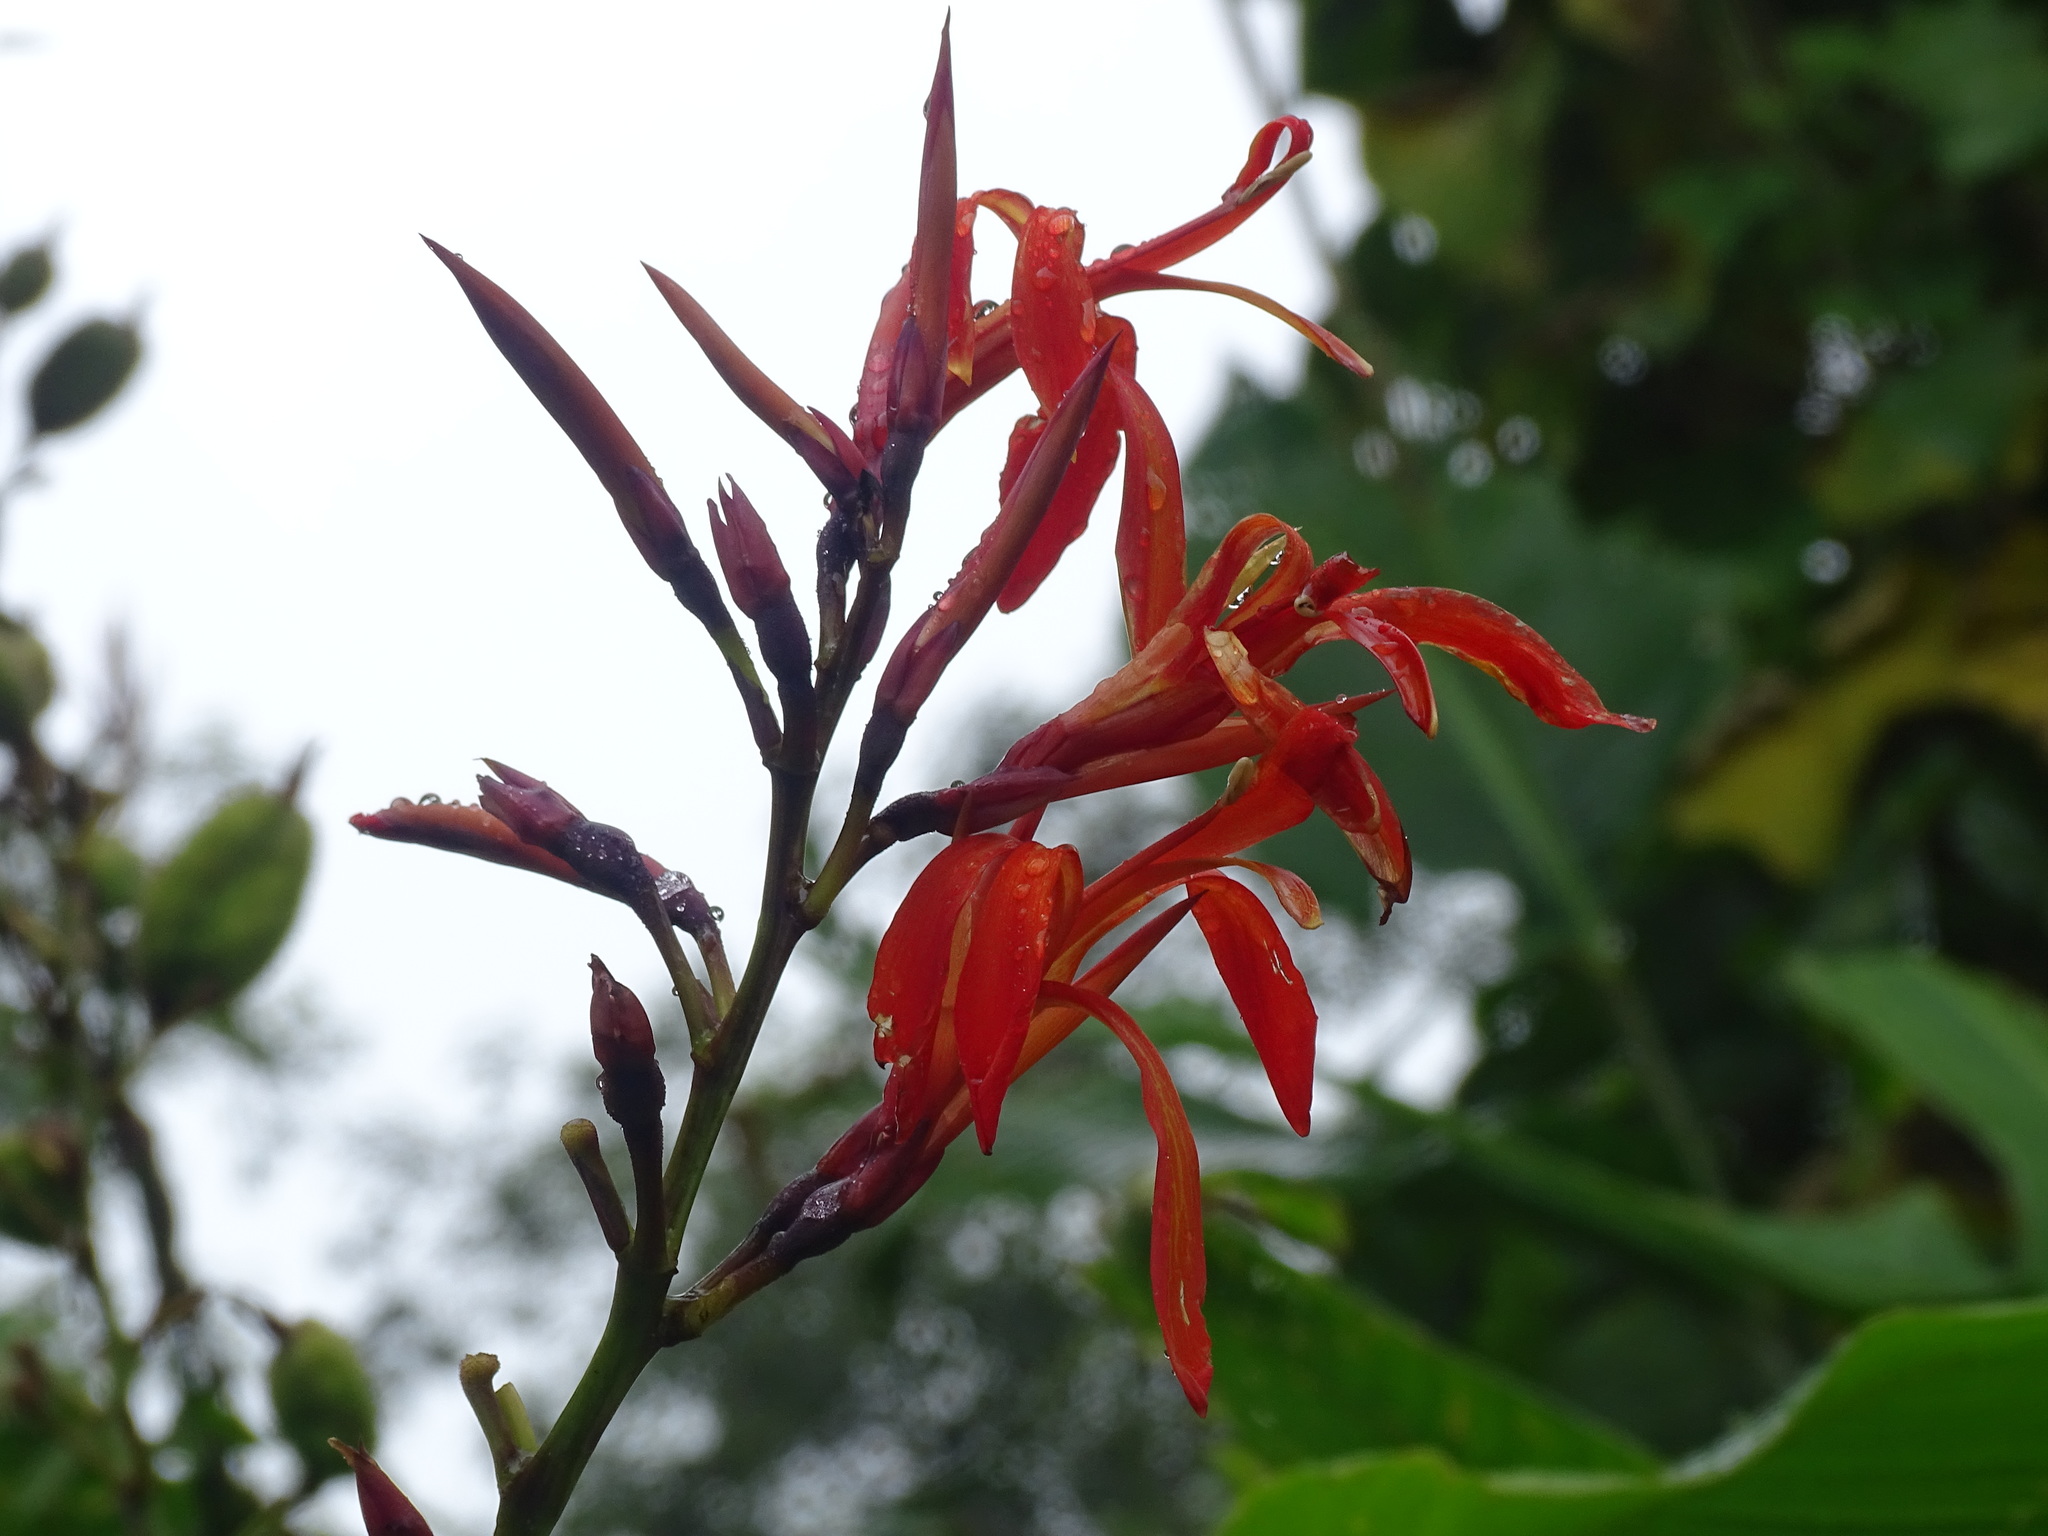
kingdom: Plantae
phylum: Tracheophyta
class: Liliopsida
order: Zingiberales
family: Cannaceae
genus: Canna
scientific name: Canna tuerckheimii
